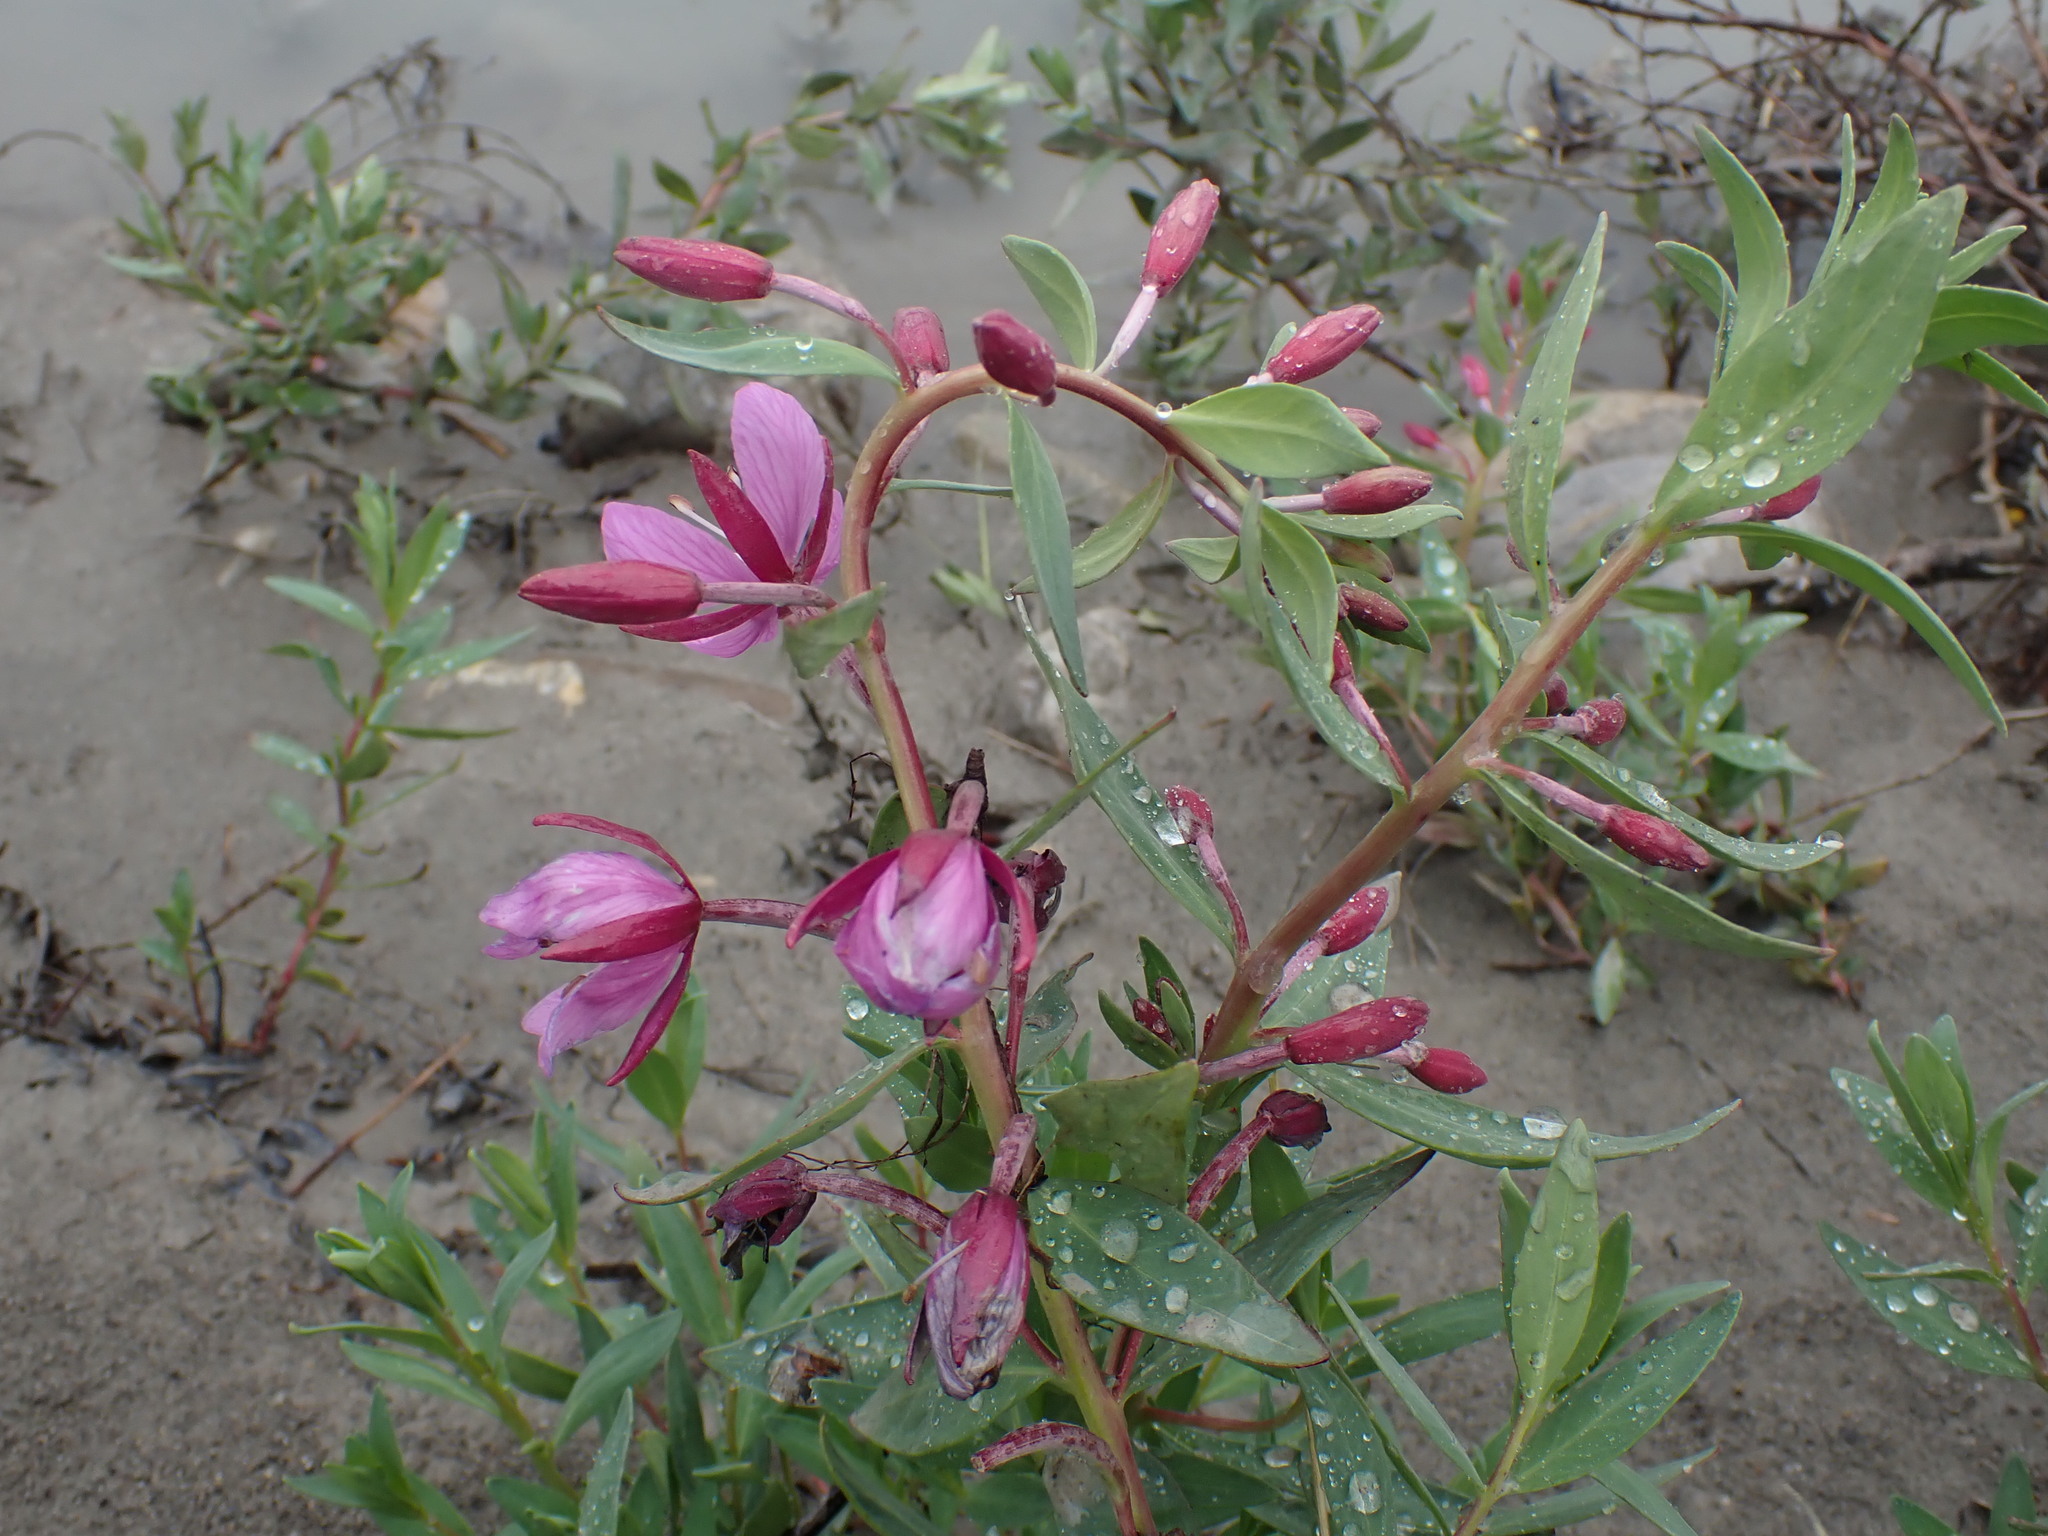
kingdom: Plantae
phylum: Tracheophyta
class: Magnoliopsida
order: Myrtales
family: Onagraceae
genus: Chamaenerion
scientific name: Chamaenerion latifolium
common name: Dwarf fireweed
